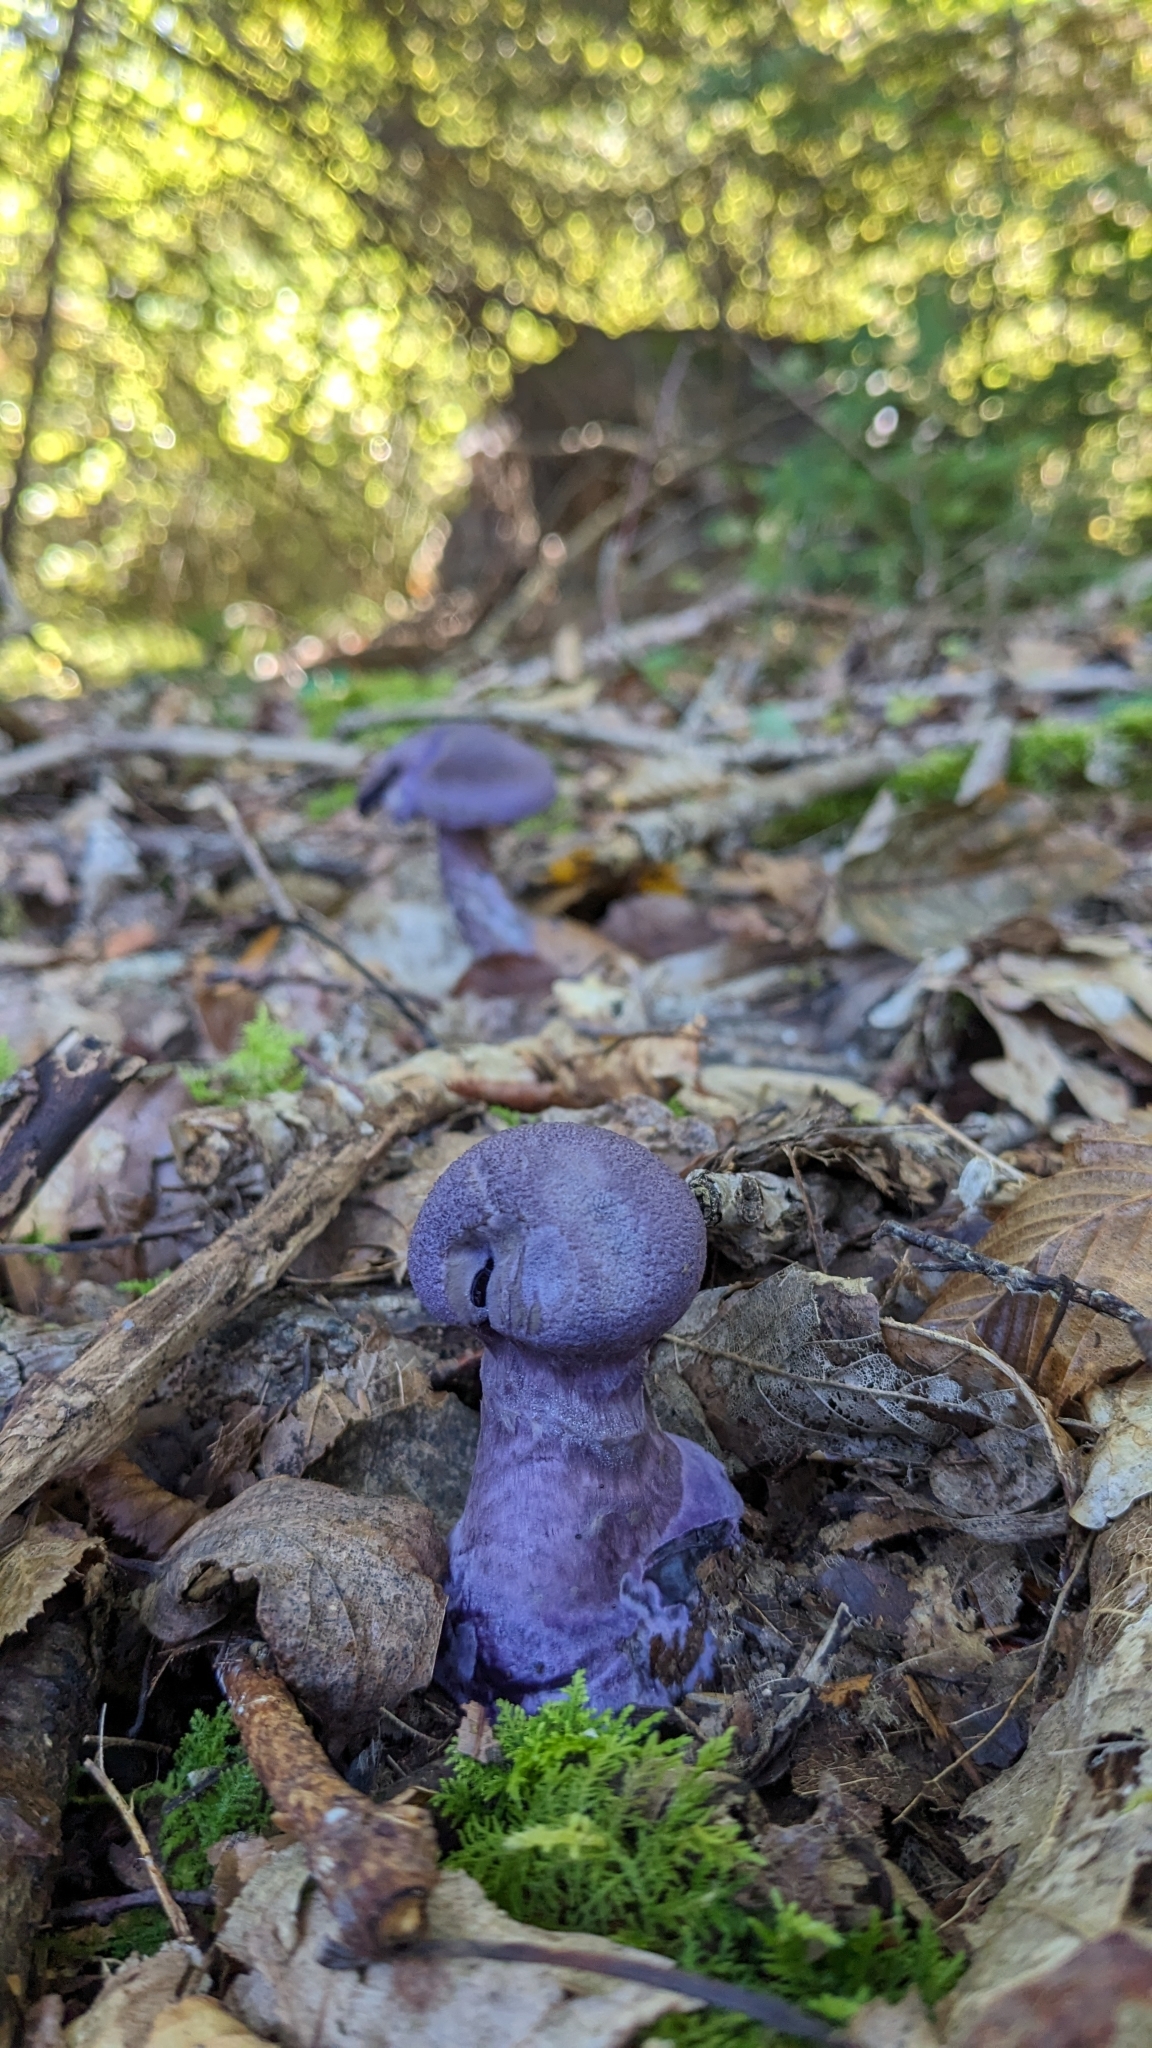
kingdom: Fungi
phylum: Basidiomycota
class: Agaricomycetes
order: Agaricales
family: Cortinariaceae
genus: Cortinarius
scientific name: Cortinarius violaceus
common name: Violet webcap
